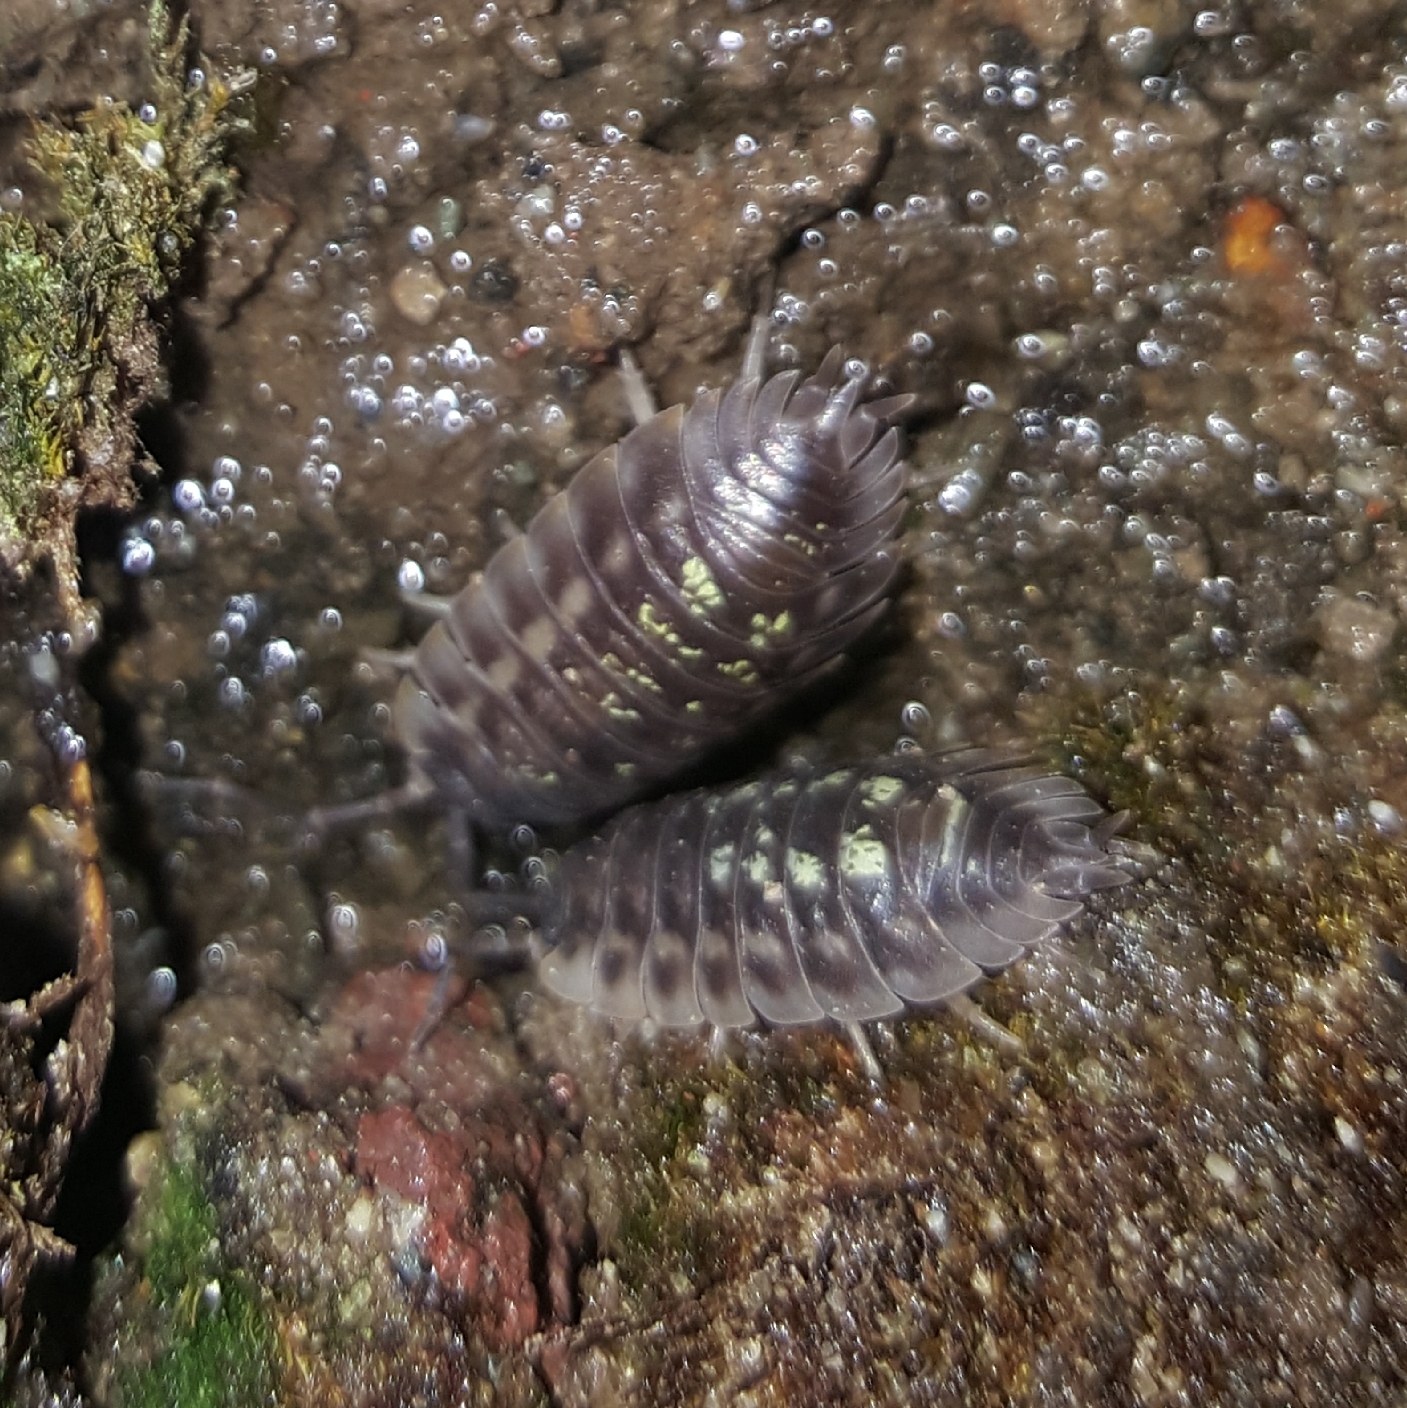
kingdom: Animalia
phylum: Arthropoda
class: Malacostraca
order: Isopoda
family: Oniscidae
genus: Oniscus
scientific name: Oniscus asellus
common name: Common shiny woodlouse
